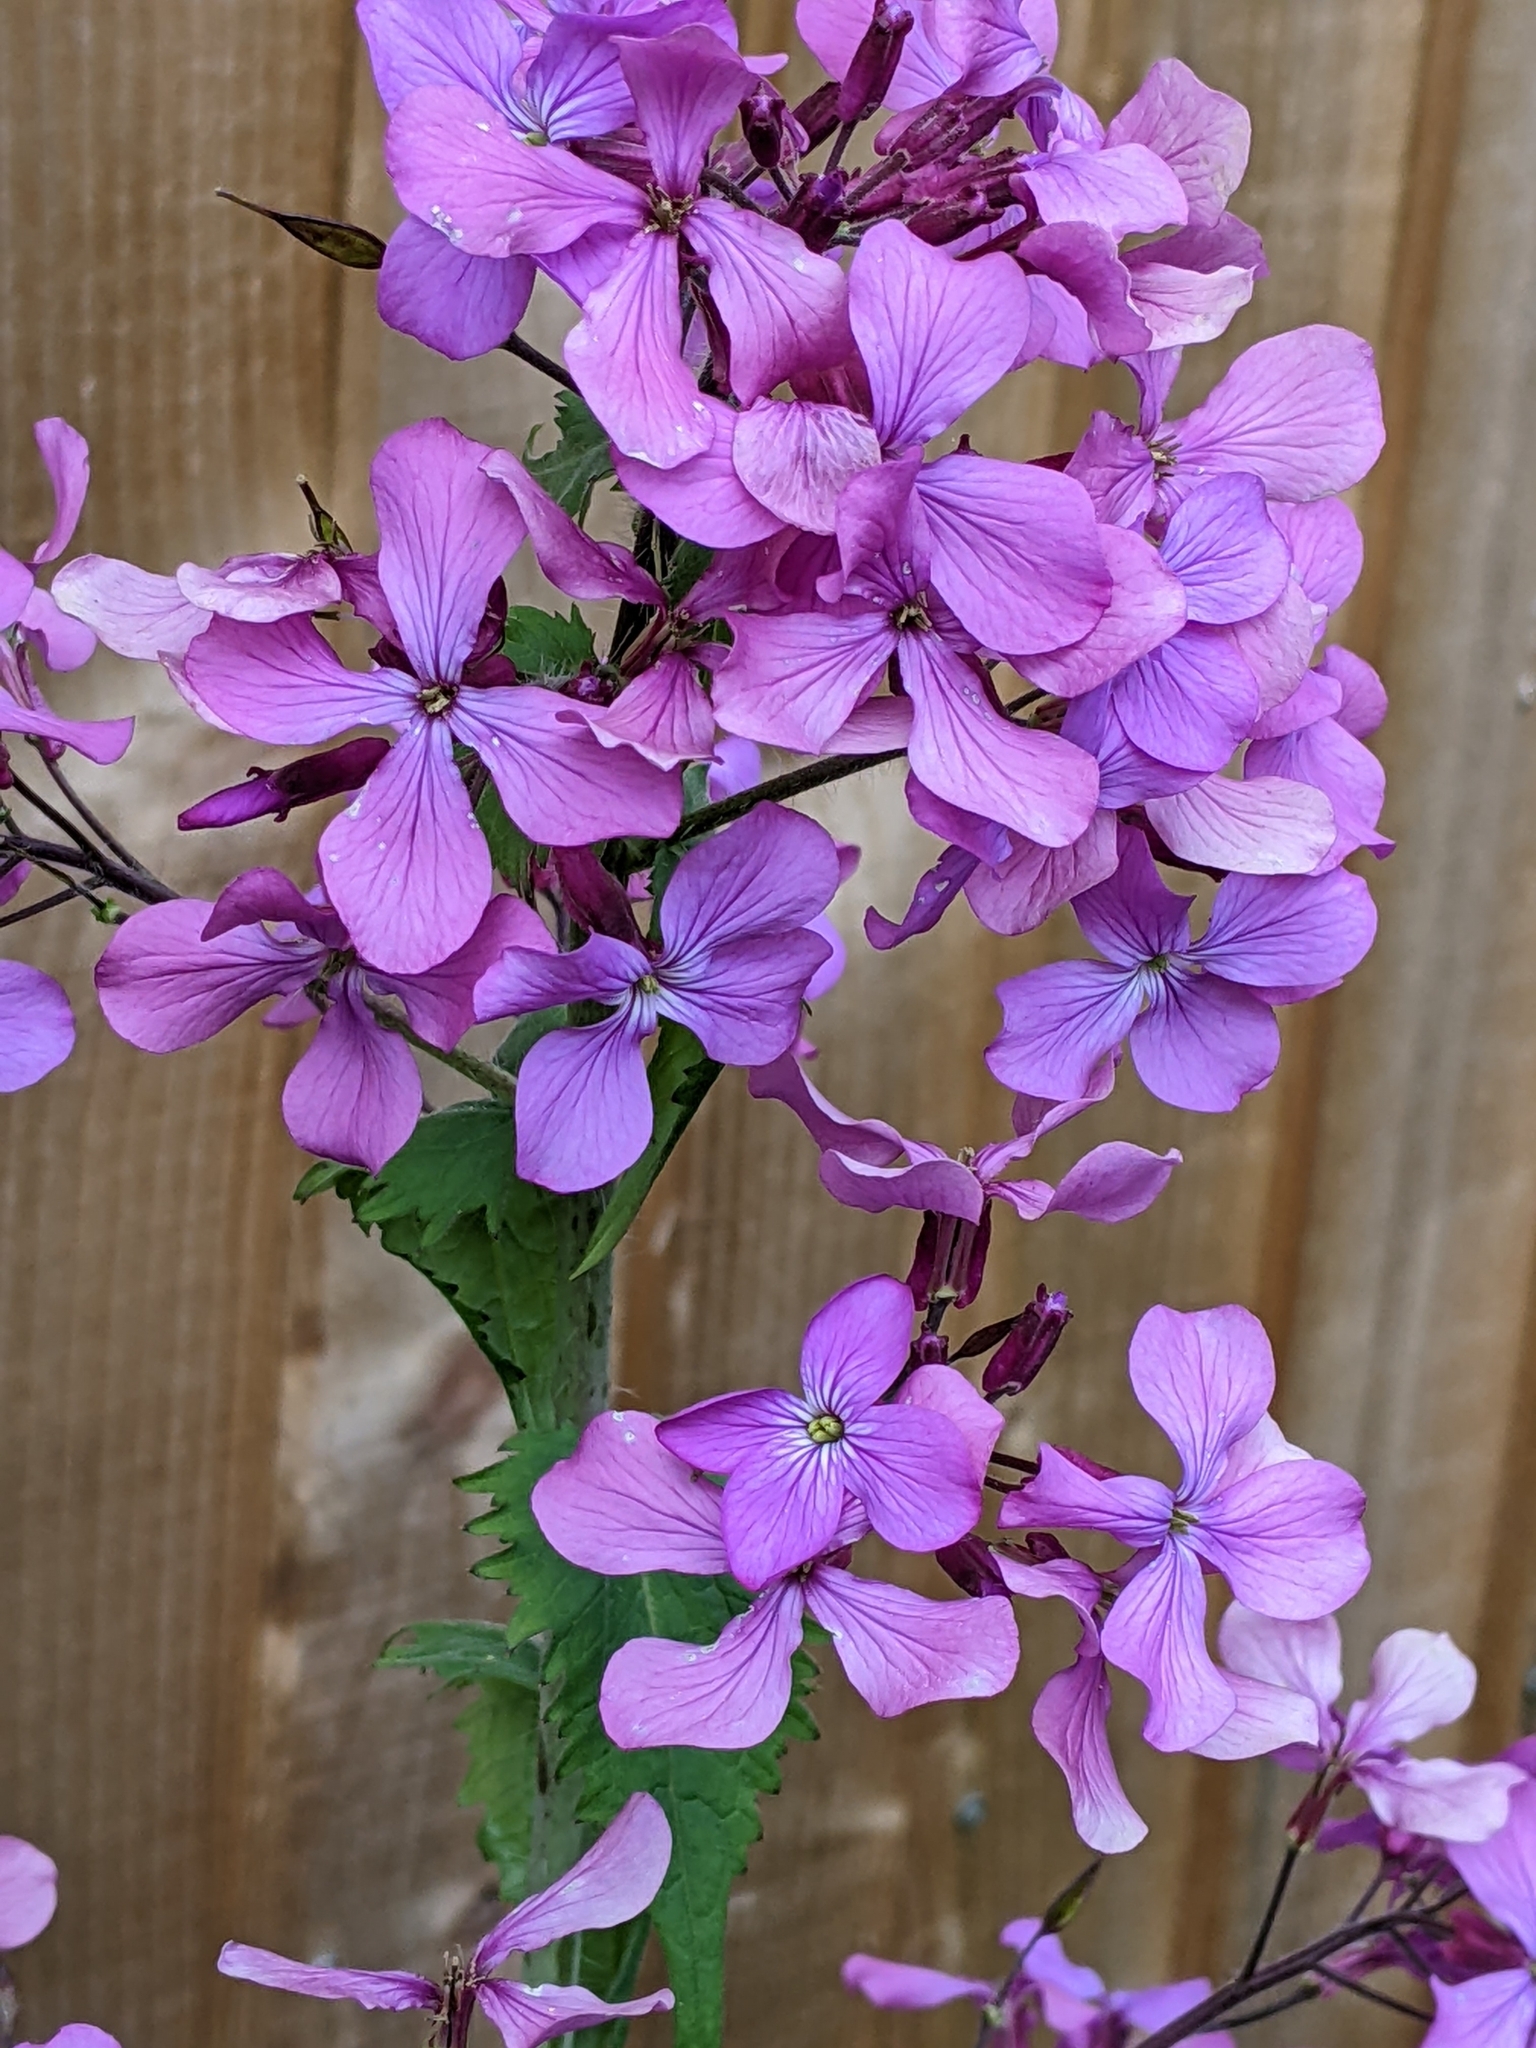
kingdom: Plantae
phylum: Tracheophyta
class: Magnoliopsida
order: Brassicales
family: Brassicaceae
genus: Lunaria
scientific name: Lunaria annua
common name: Honesty
